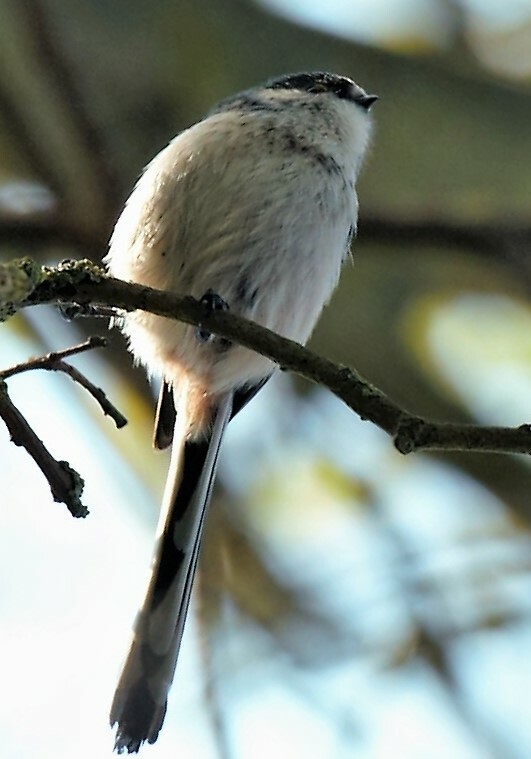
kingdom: Animalia
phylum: Chordata
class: Aves
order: Passeriformes
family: Aegithalidae
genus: Aegithalos
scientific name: Aegithalos caudatus
